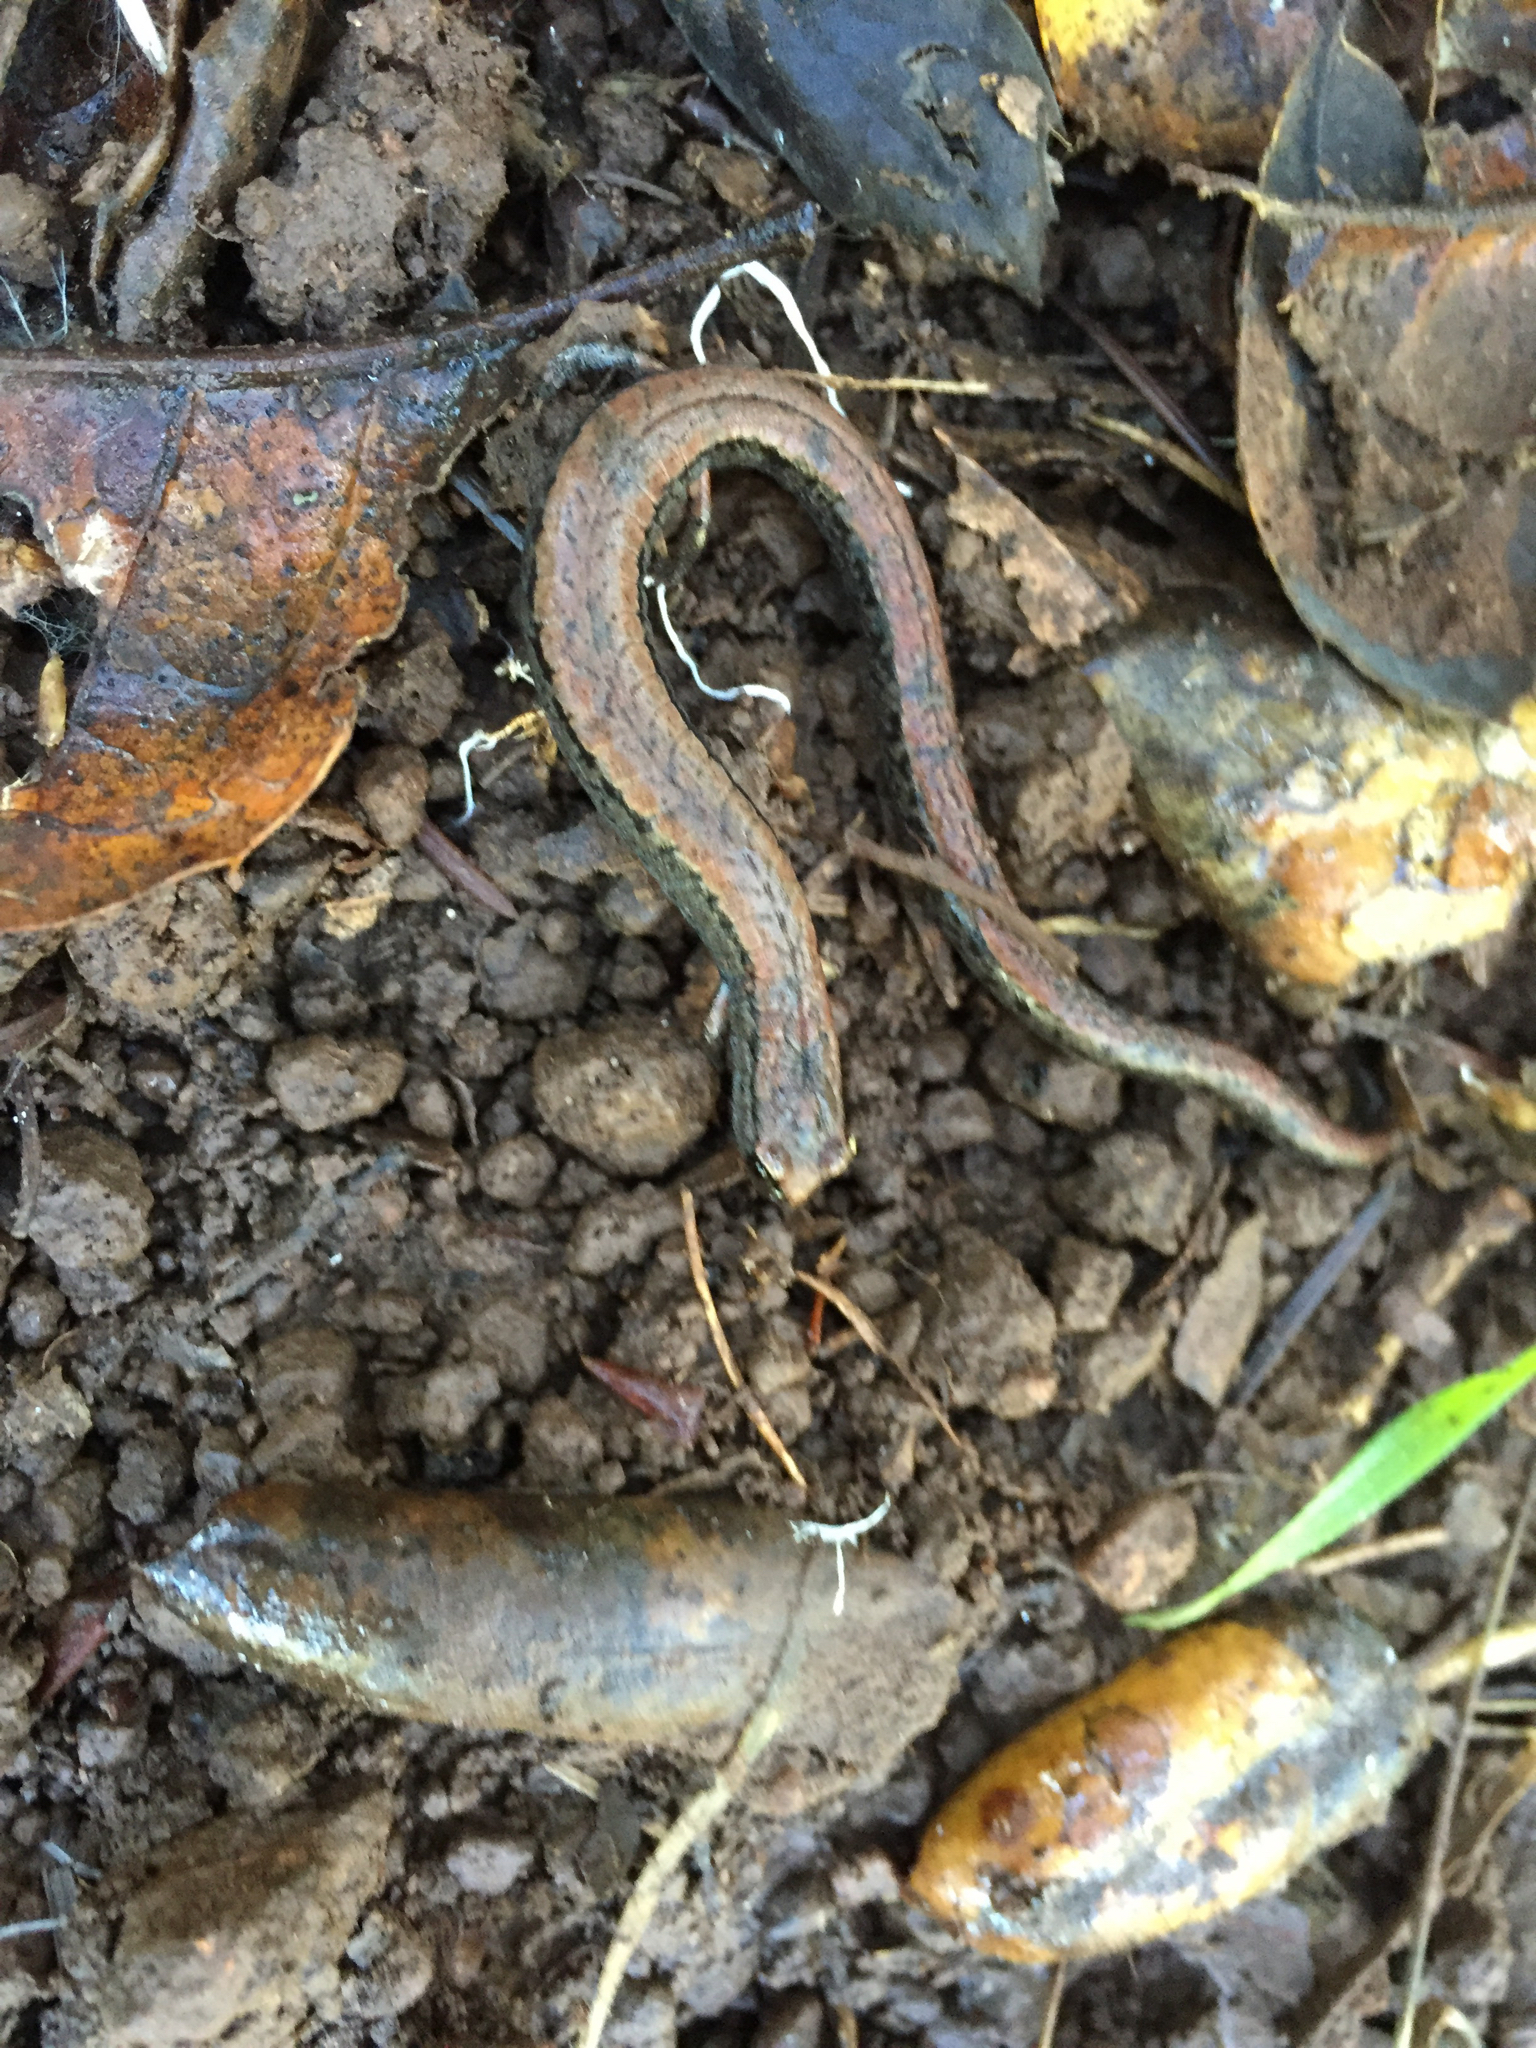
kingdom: Animalia
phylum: Chordata
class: Amphibia
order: Caudata
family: Plethodontidae
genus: Batrachoseps
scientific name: Batrachoseps attenuatus
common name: California slender salamander
